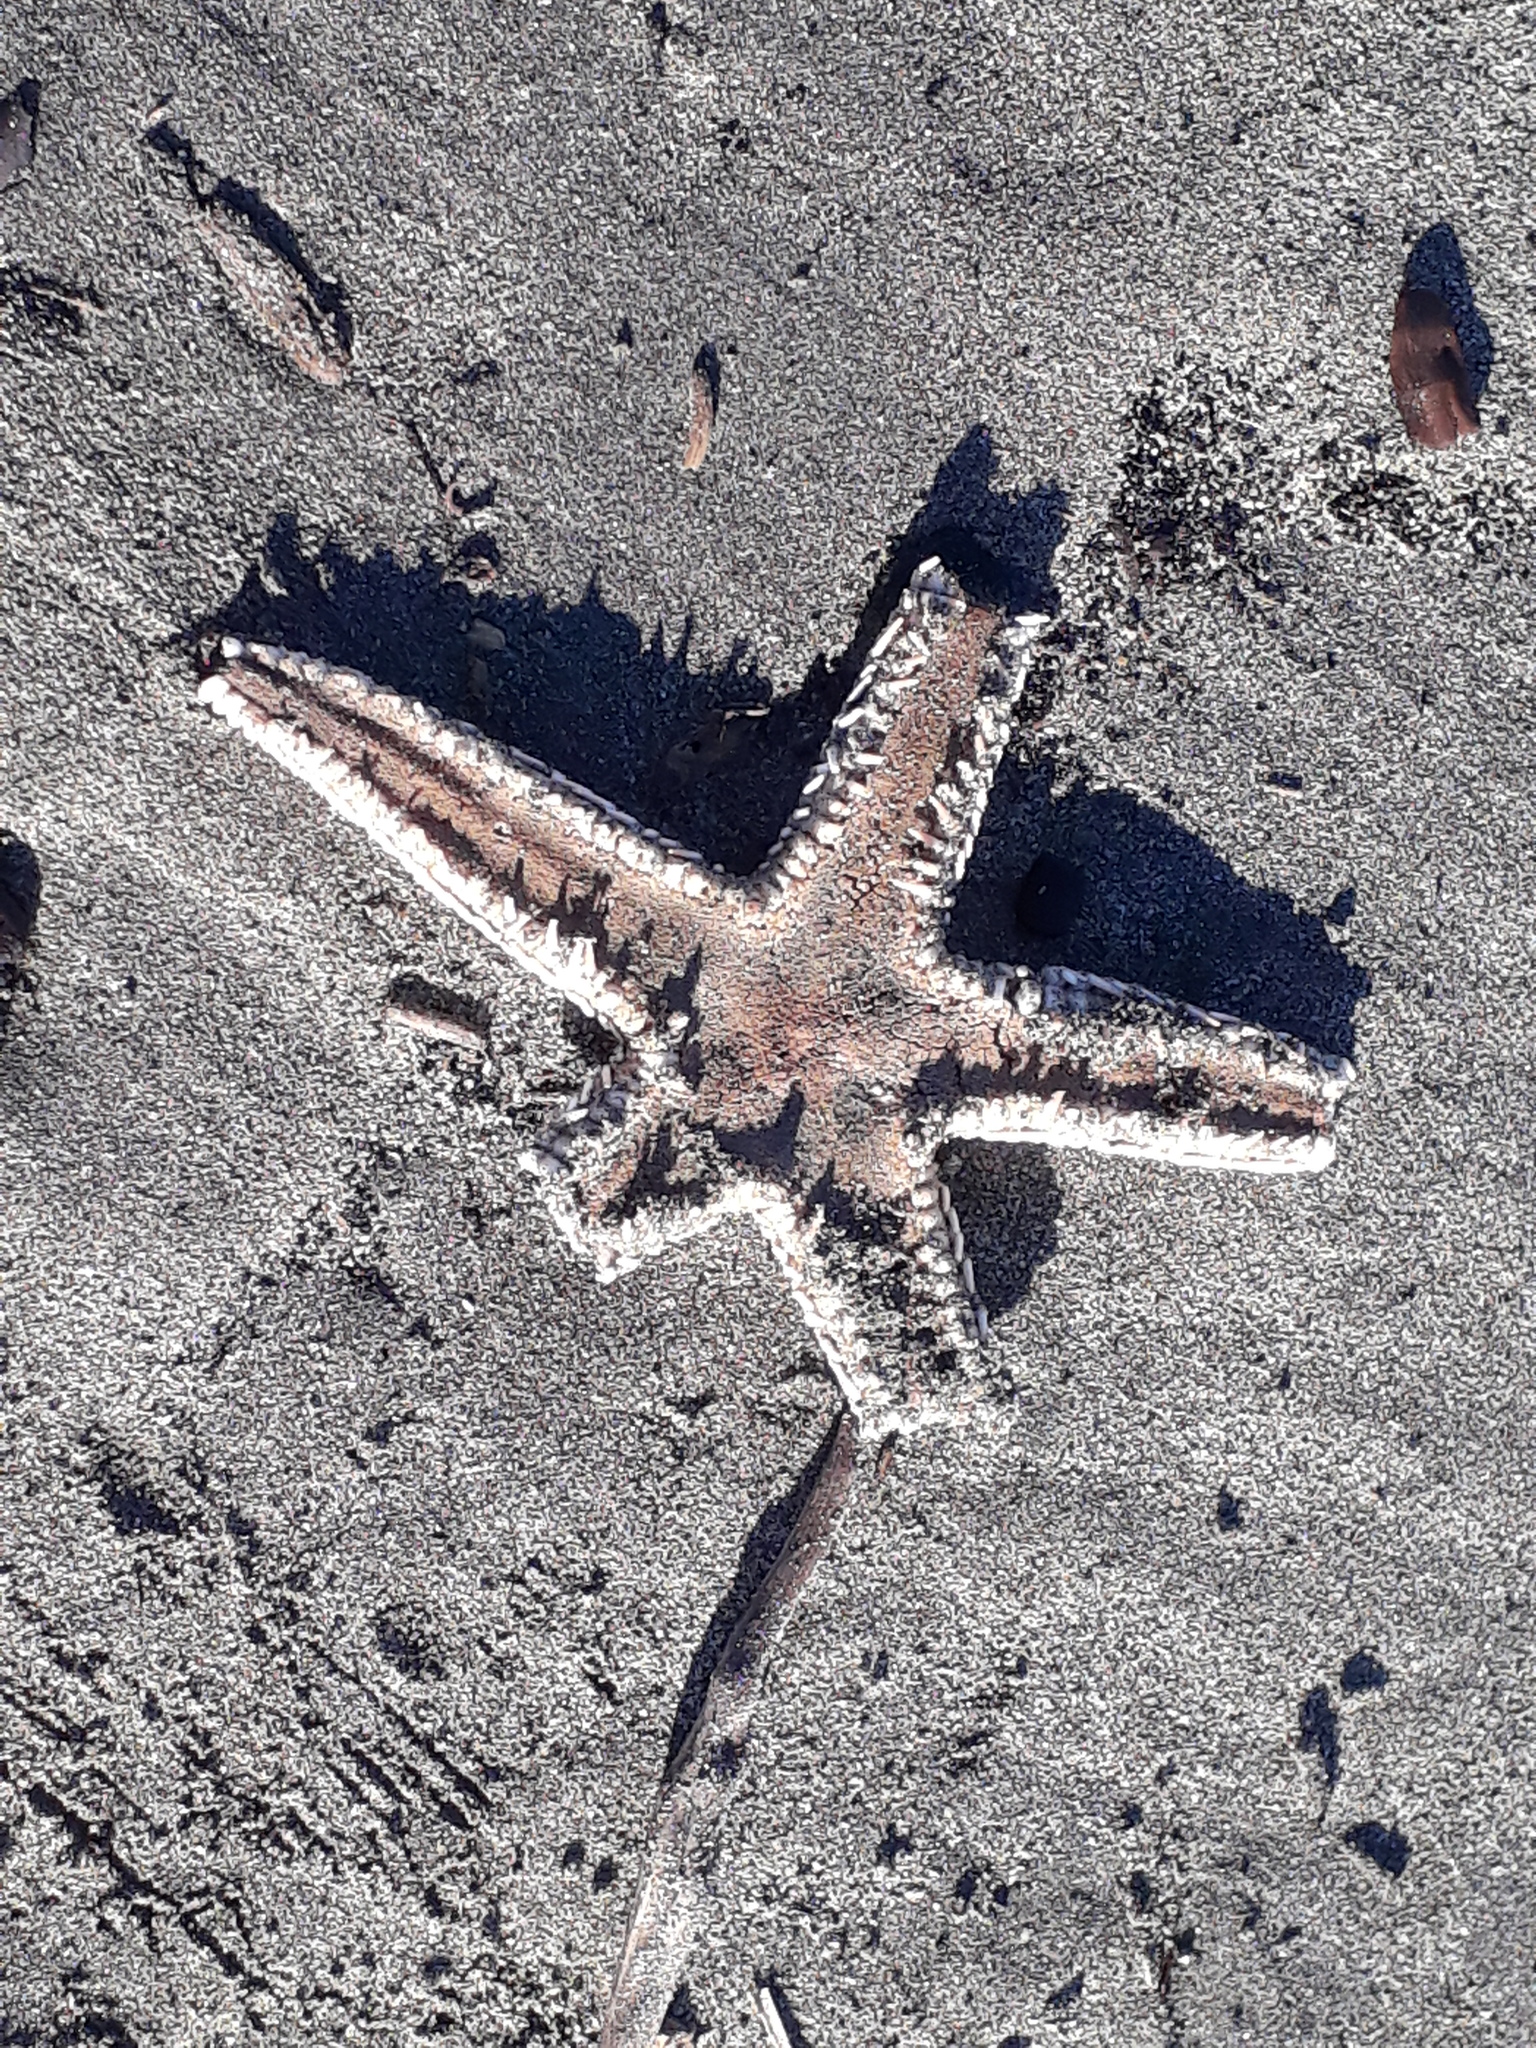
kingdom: Animalia
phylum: Echinodermata
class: Asteroidea
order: Paxillosida
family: Astropectinidae
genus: Astropecten
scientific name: Astropecten polyacanthus
